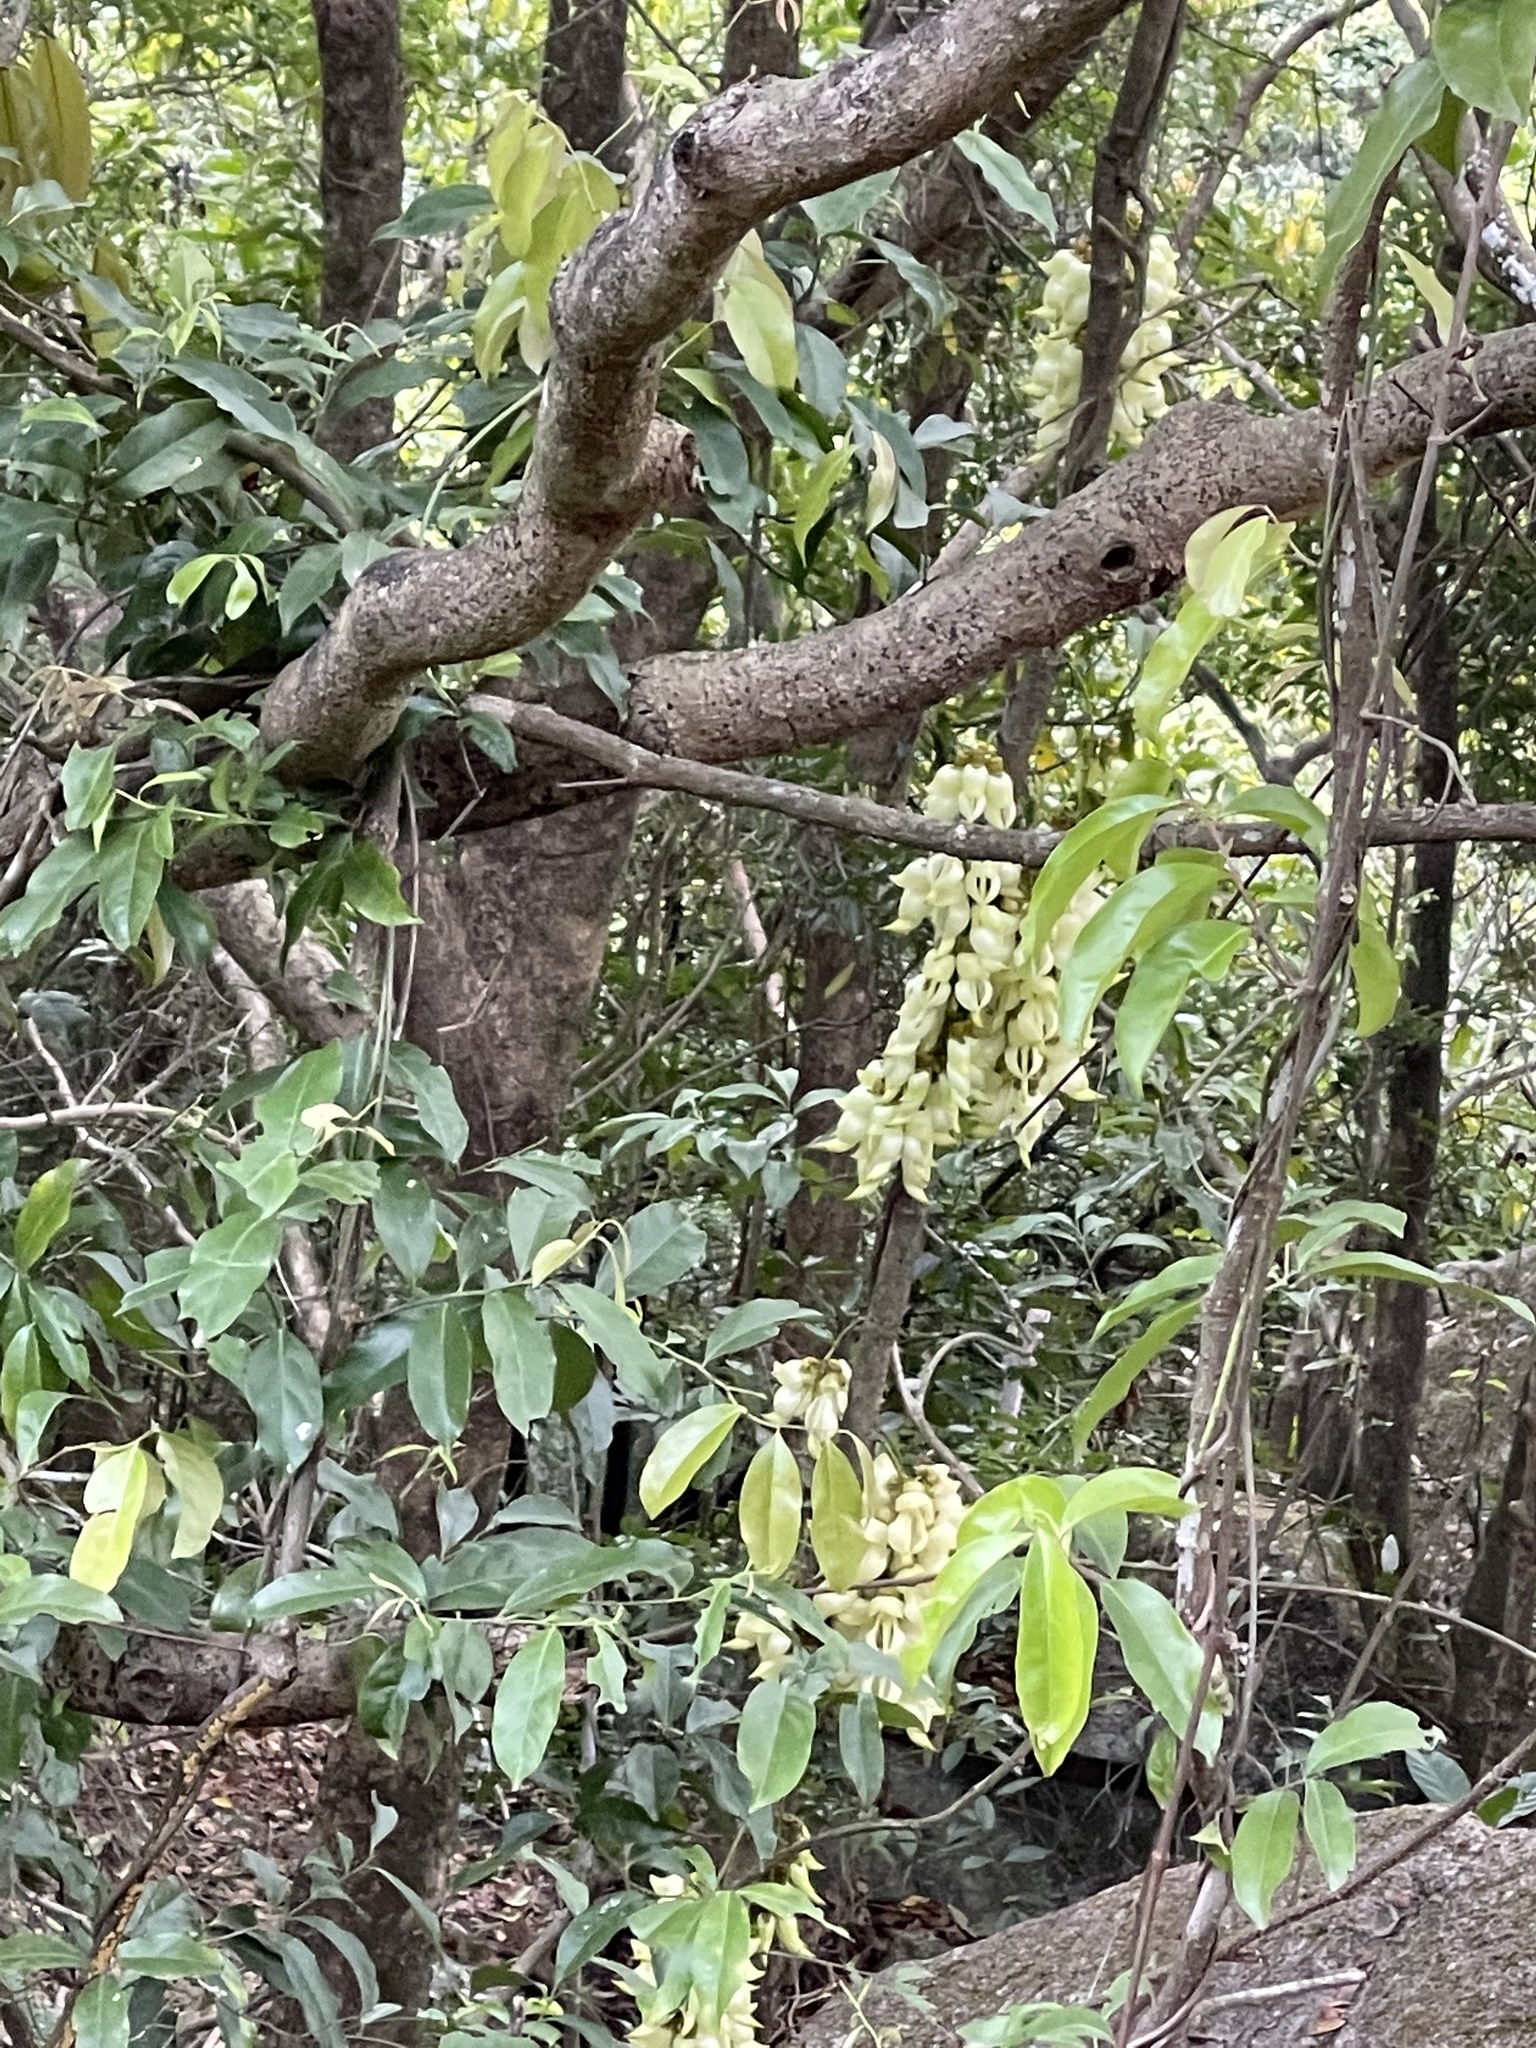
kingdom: Plantae
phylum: Tracheophyta
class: Magnoliopsida
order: Fabales
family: Fabaceae
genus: Mucuna
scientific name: Mucuna birdwoodiana
